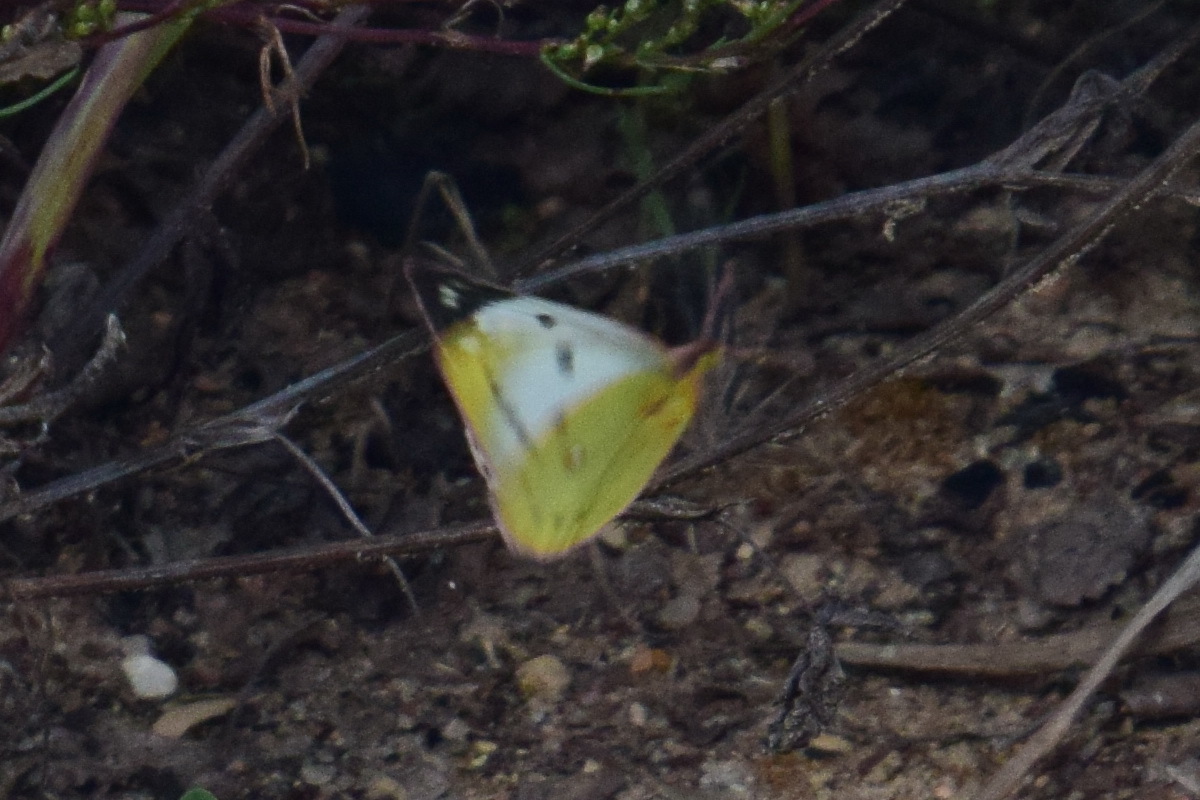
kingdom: Animalia
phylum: Arthropoda
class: Insecta
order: Lepidoptera
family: Pieridae
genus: Colias
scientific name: Colias hyale
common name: Pale clouded yellow
